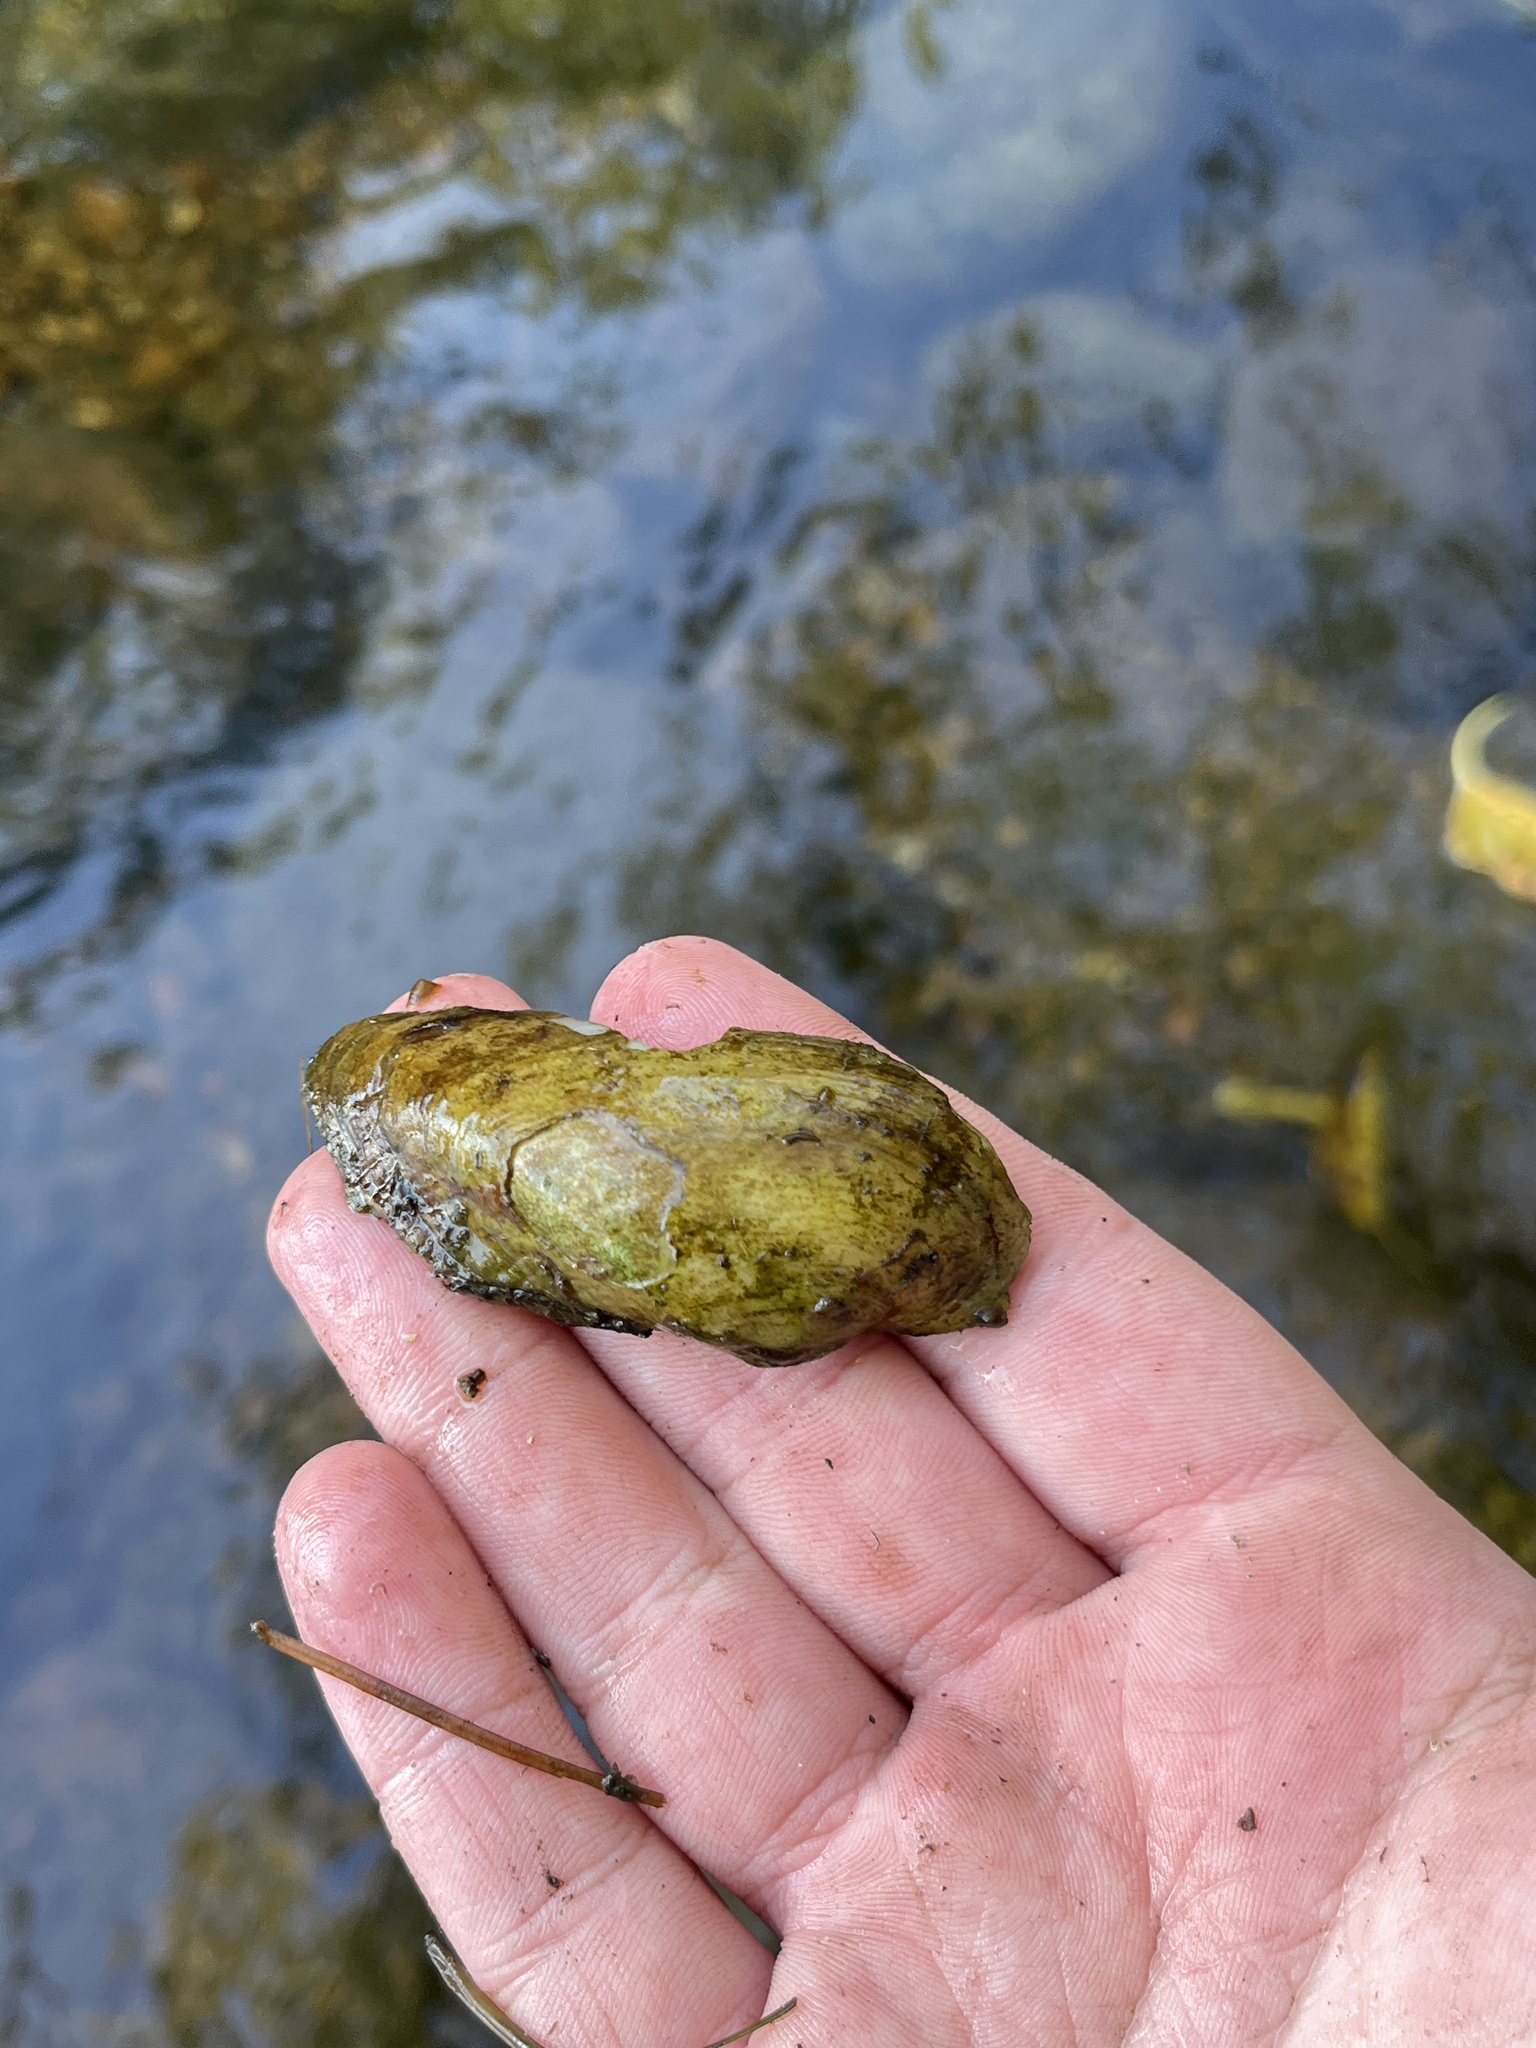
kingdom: Animalia
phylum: Mollusca
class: Bivalvia
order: Unionida
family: Unionidae
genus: Alasmidonta
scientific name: Alasmidonta marginata
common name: Elktoe
